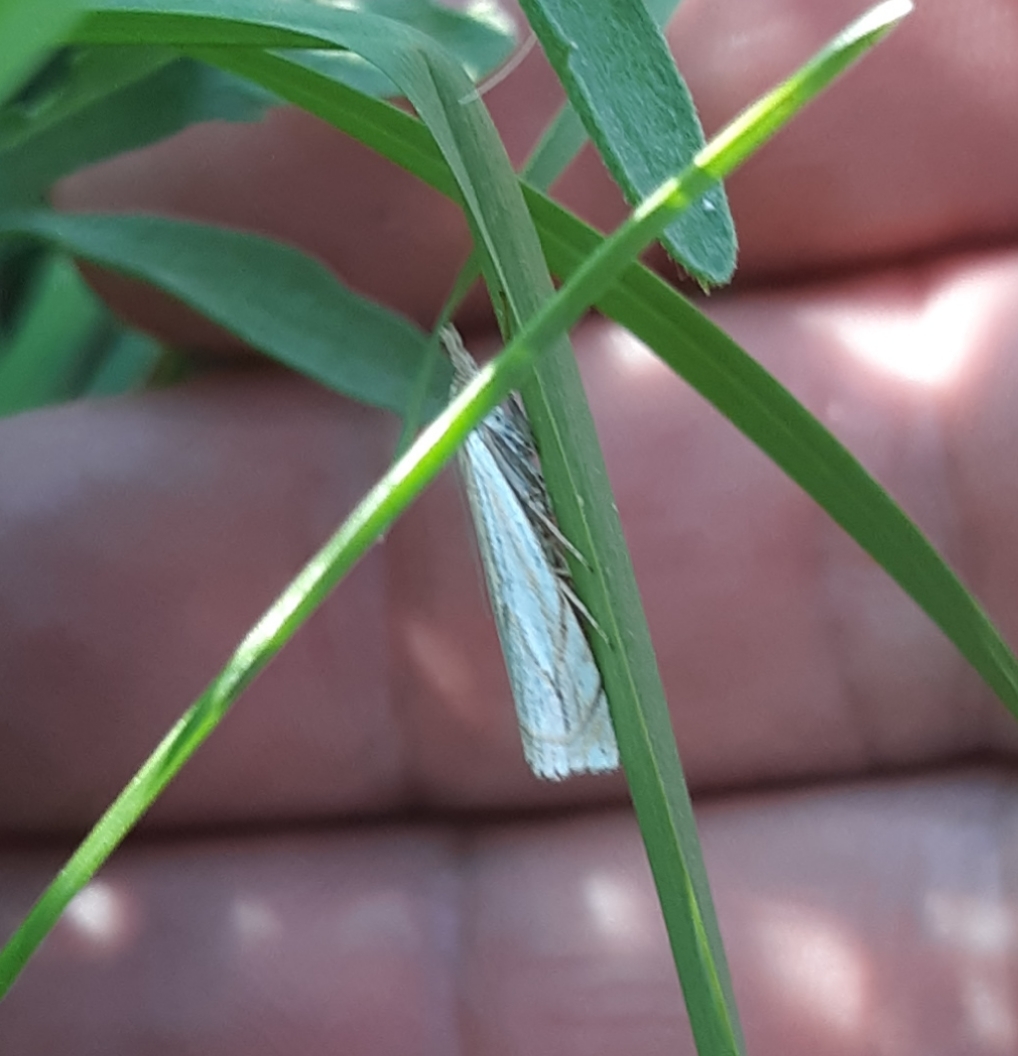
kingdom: Animalia
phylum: Arthropoda
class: Insecta
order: Lepidoptera
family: Crambidae
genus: Crambus
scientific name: Crambus saltuellus
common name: Pasture grass-veneer
